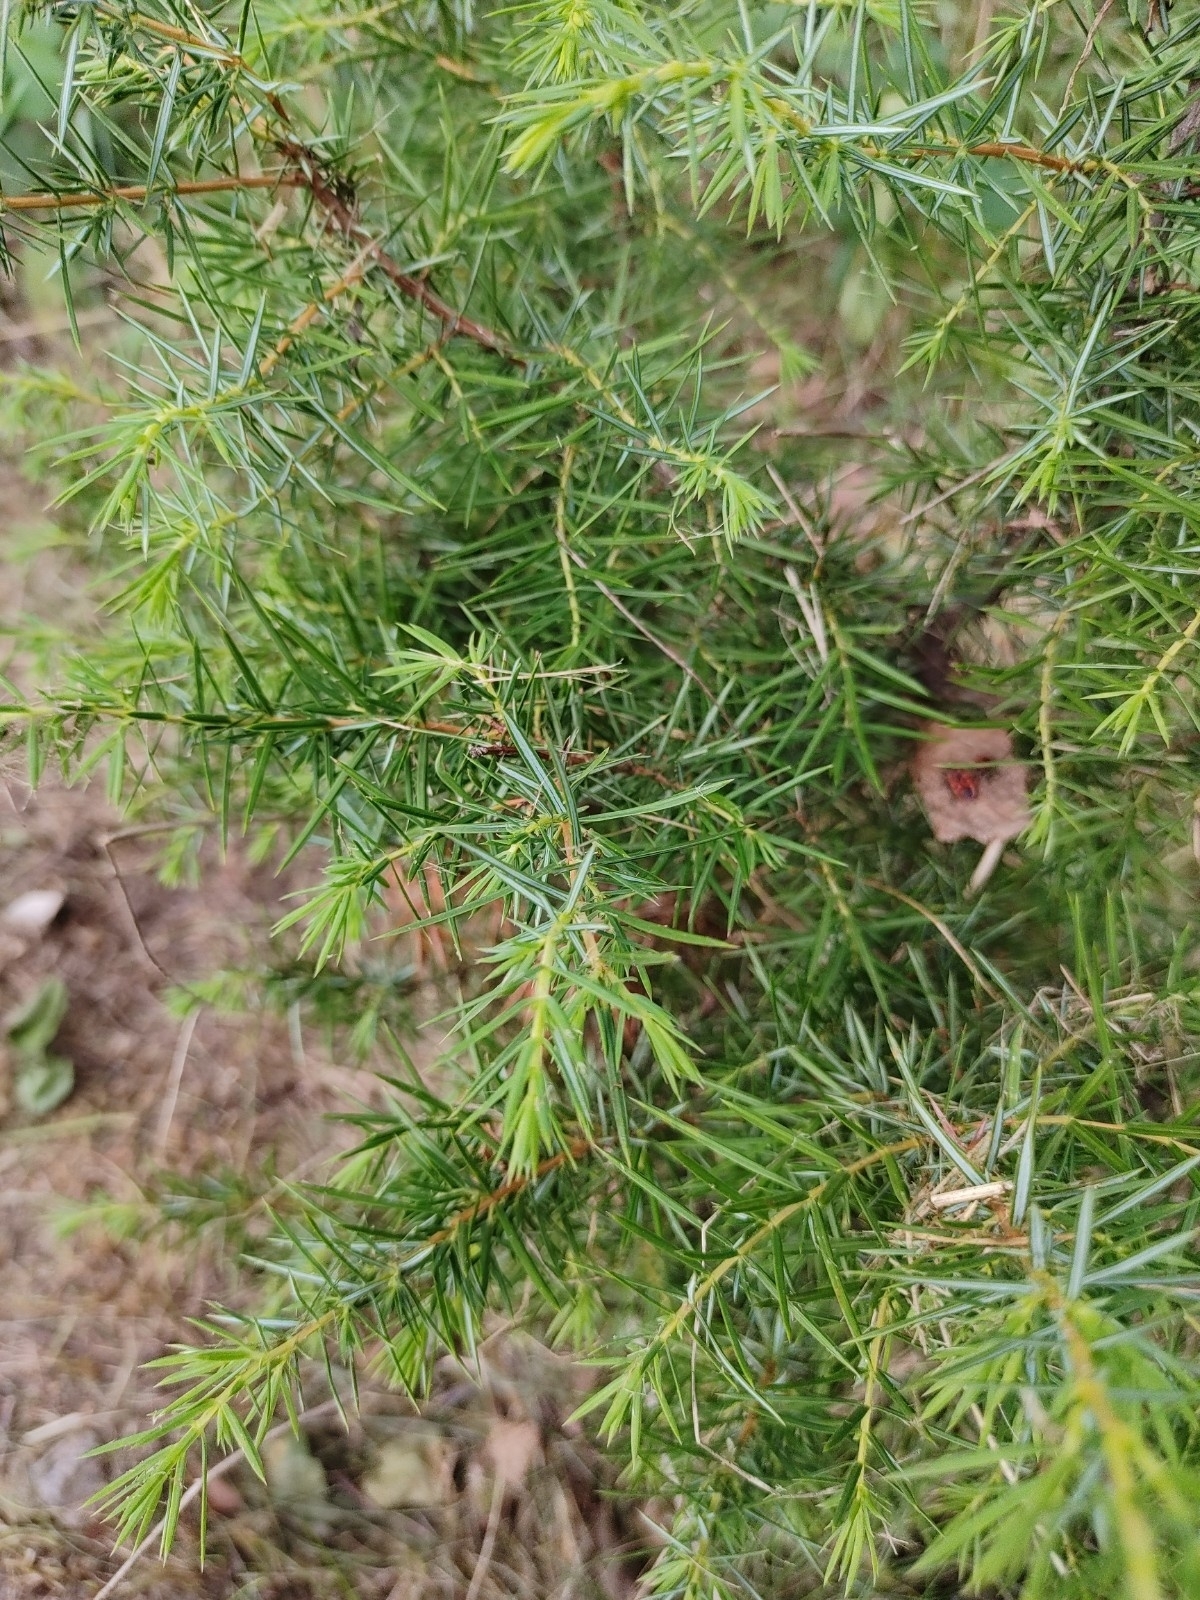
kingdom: Plantae
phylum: Tracheophyta
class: Pinopsida
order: Pinales
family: Cupressaceae
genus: Juniperus
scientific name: Juniperus communis
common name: Common juniper
